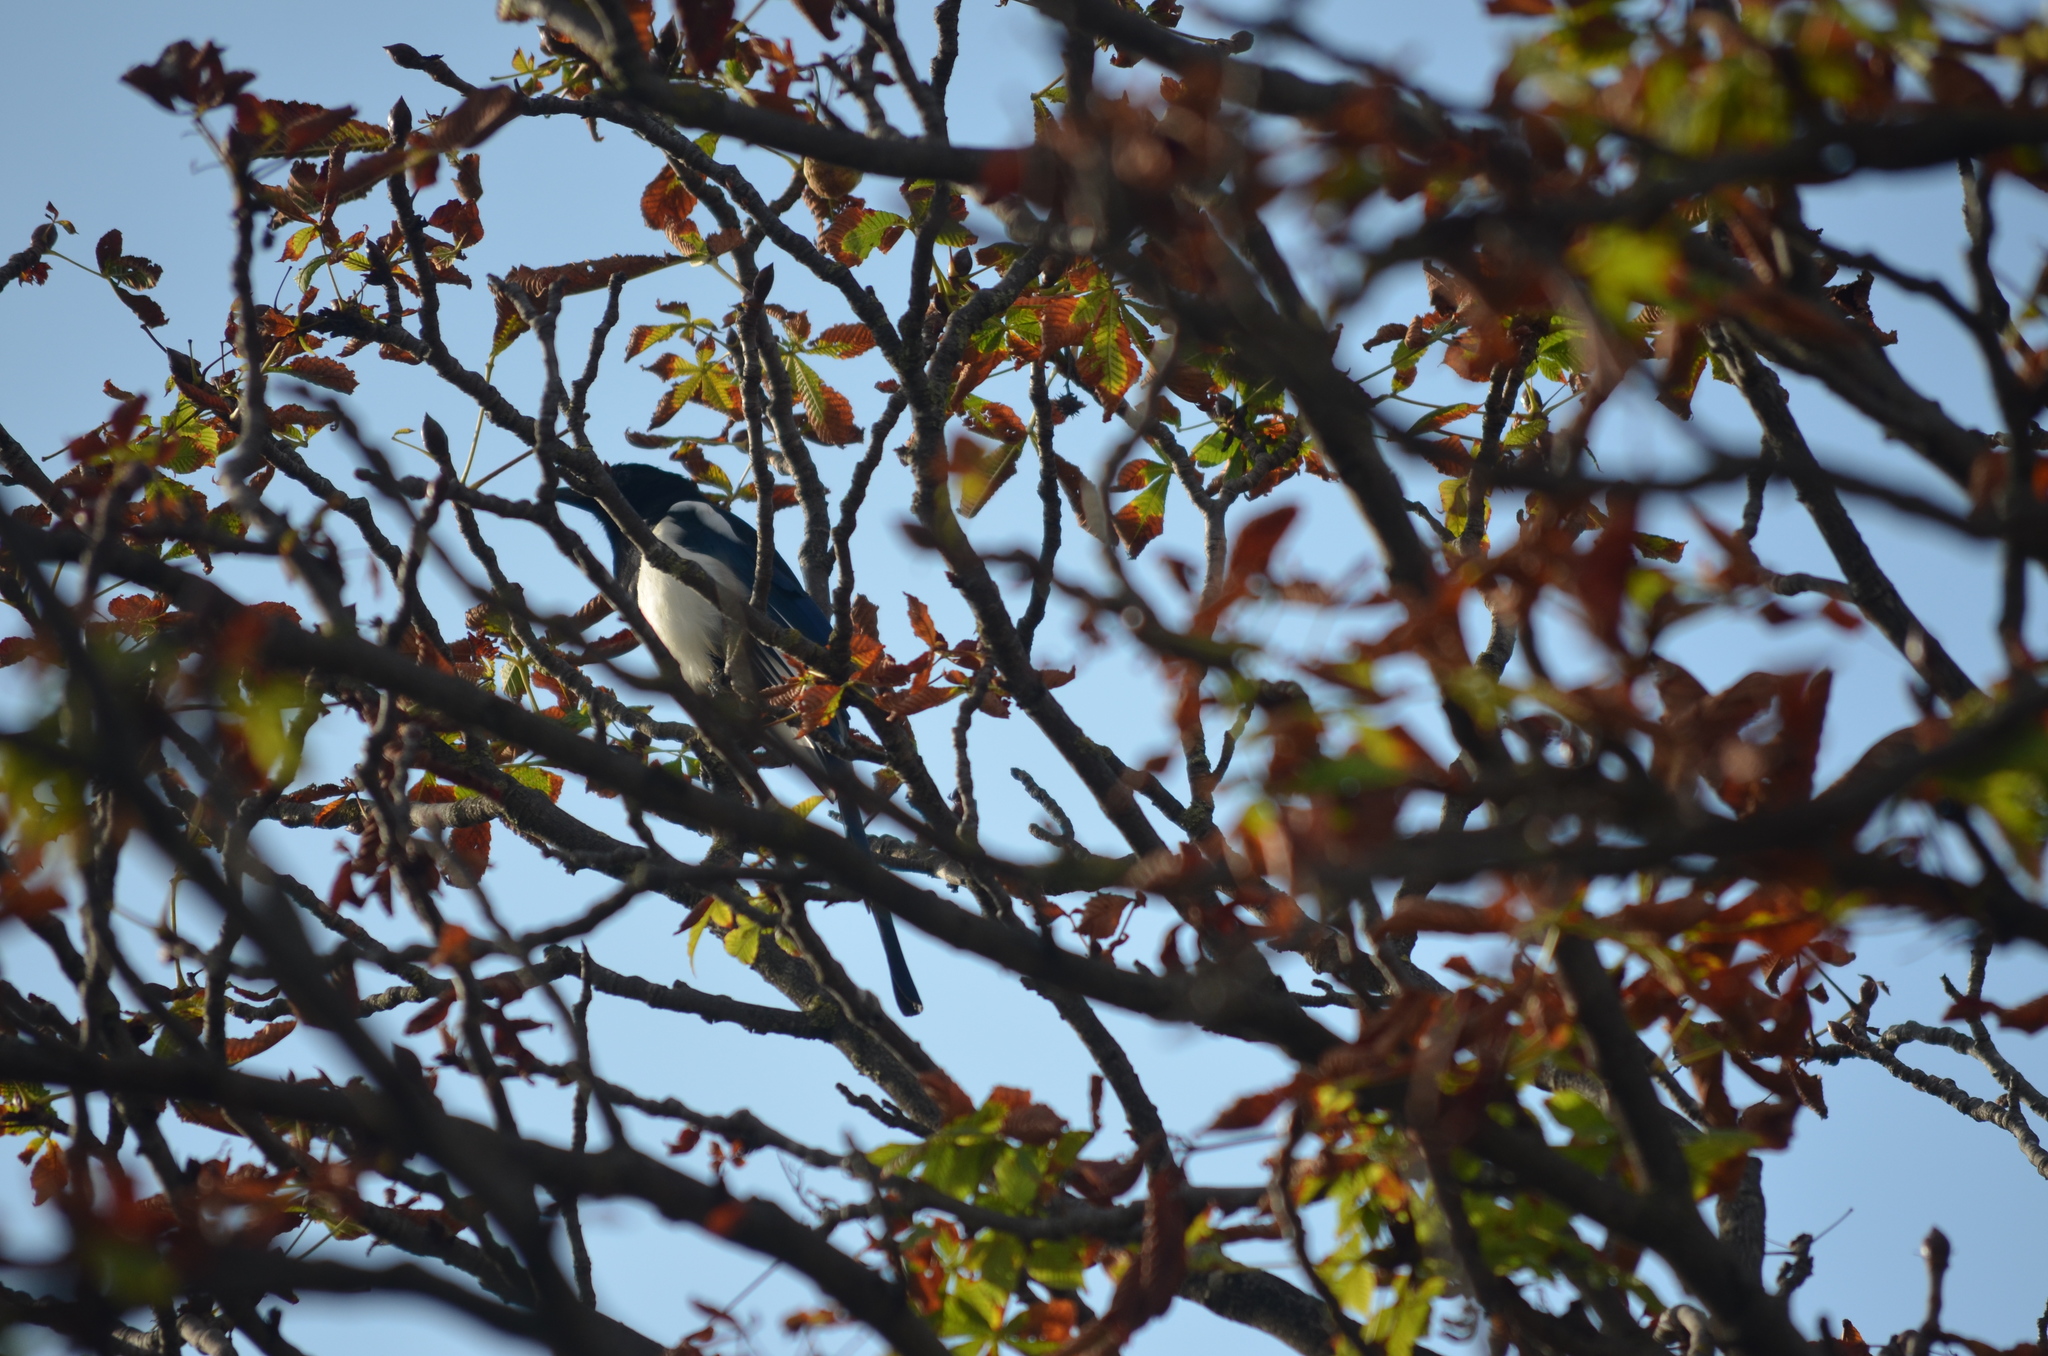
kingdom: Animalia
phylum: Chordata
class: Aves
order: Passeriformes
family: Corvidae
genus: Pica
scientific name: Pica pica
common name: Eurasian magpie
